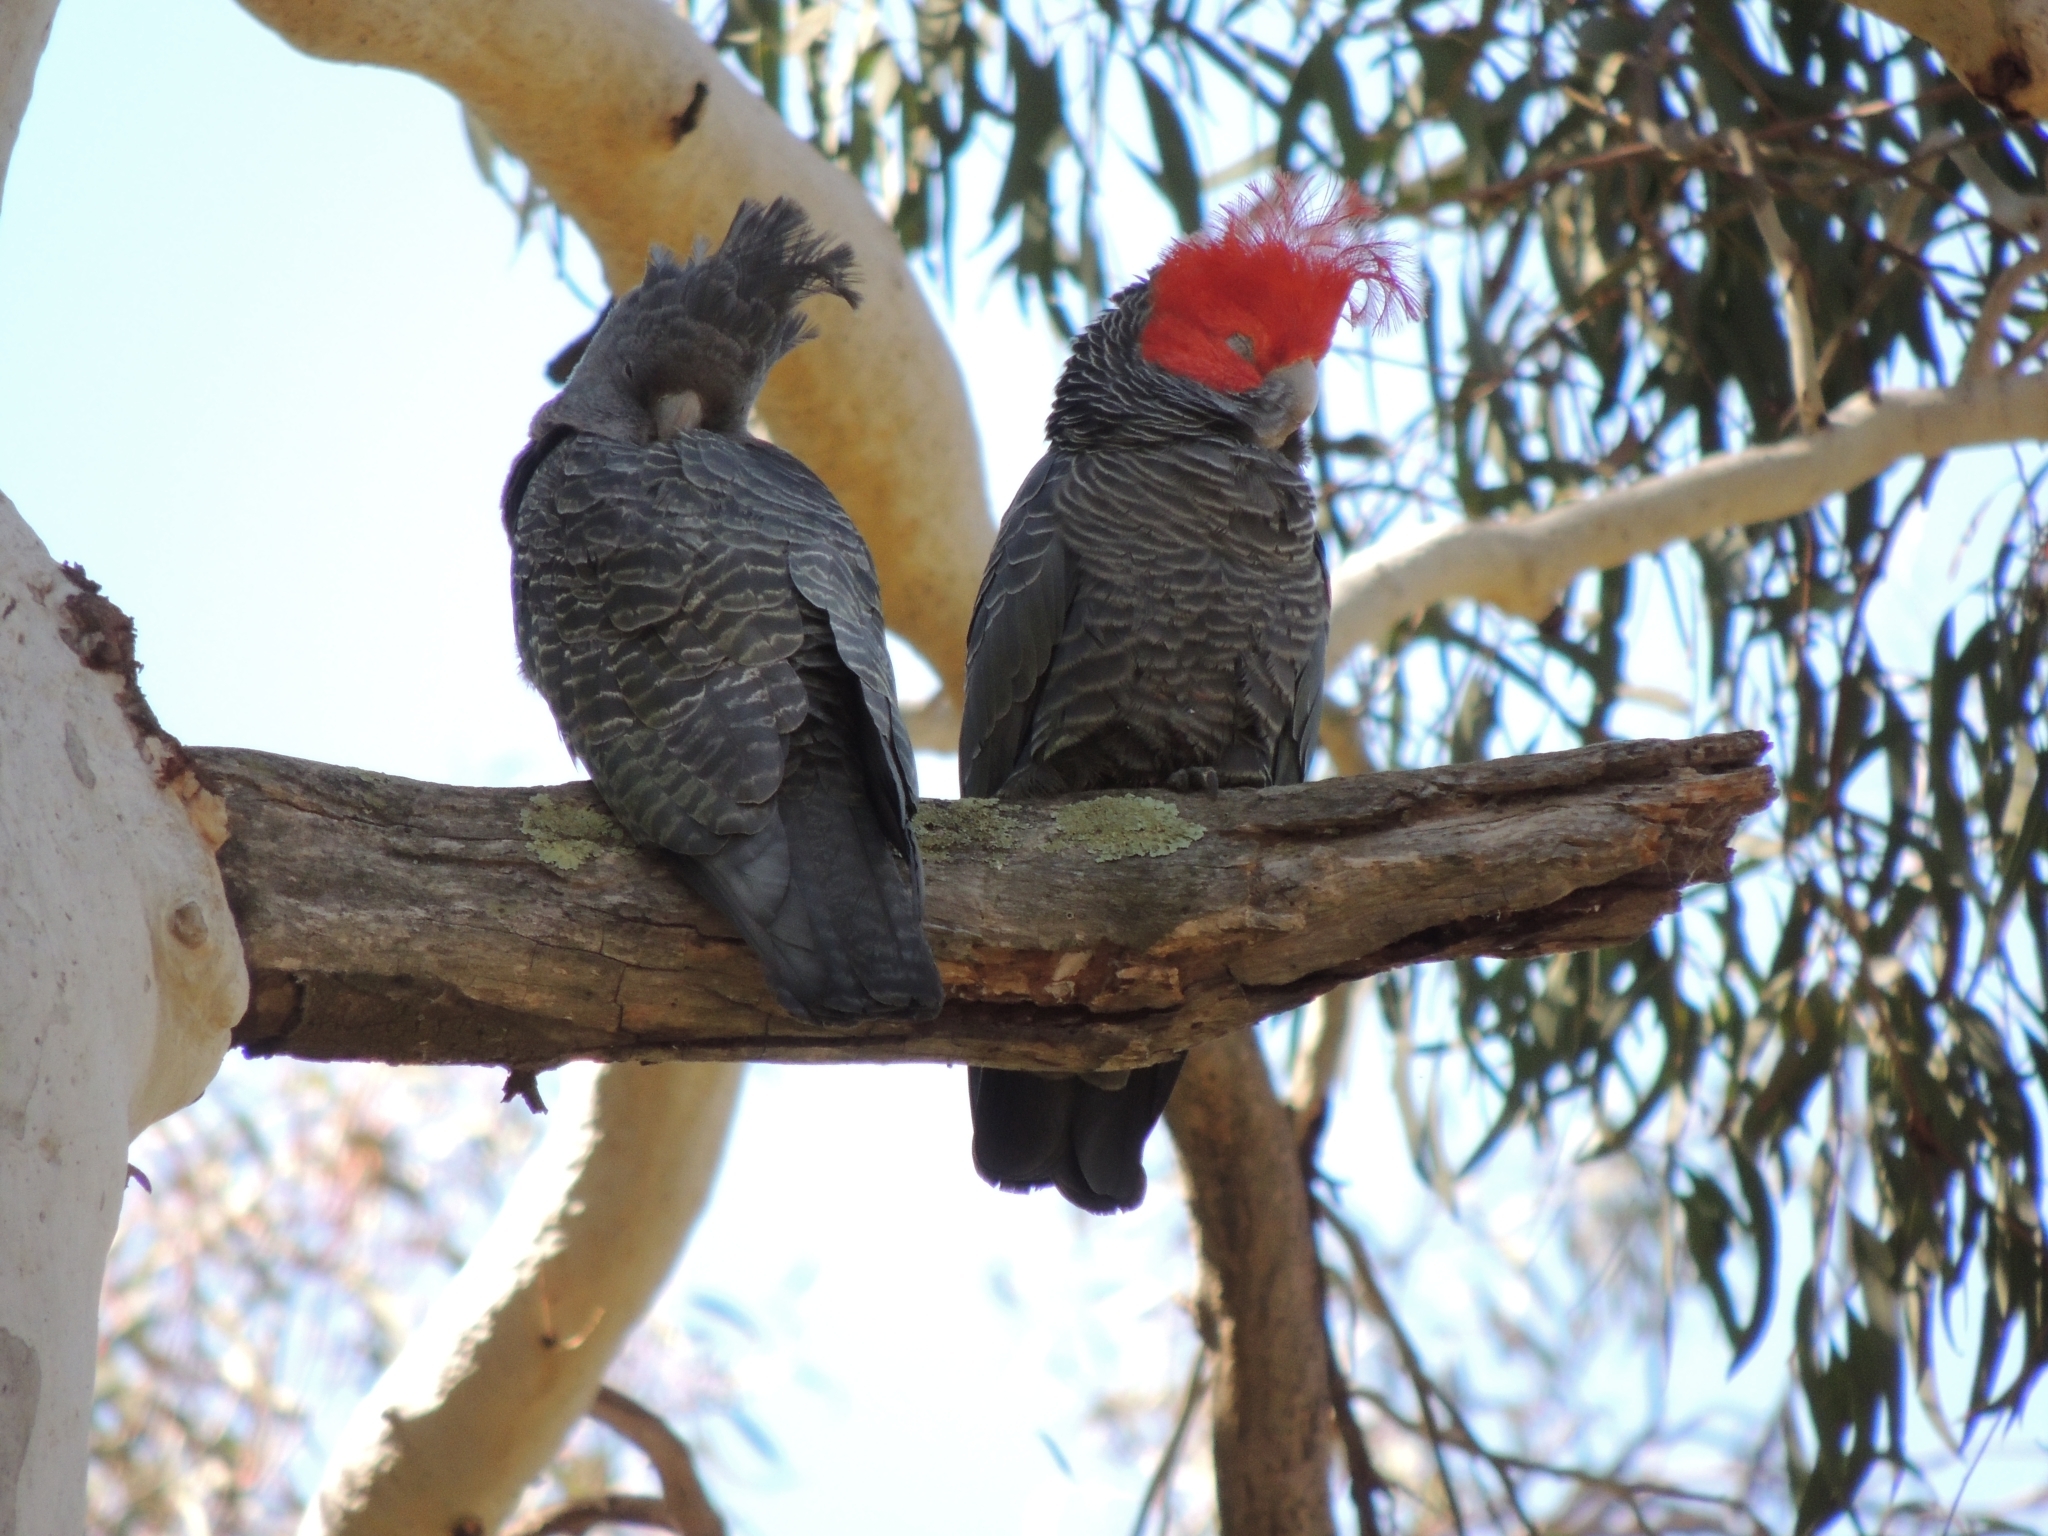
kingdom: Animalia
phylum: Chordata
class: Aves
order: Psittaciformes
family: Psittacidae
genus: Callocephalon
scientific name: Callocephalon fimbriatum
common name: Gang-gang cockatoo
